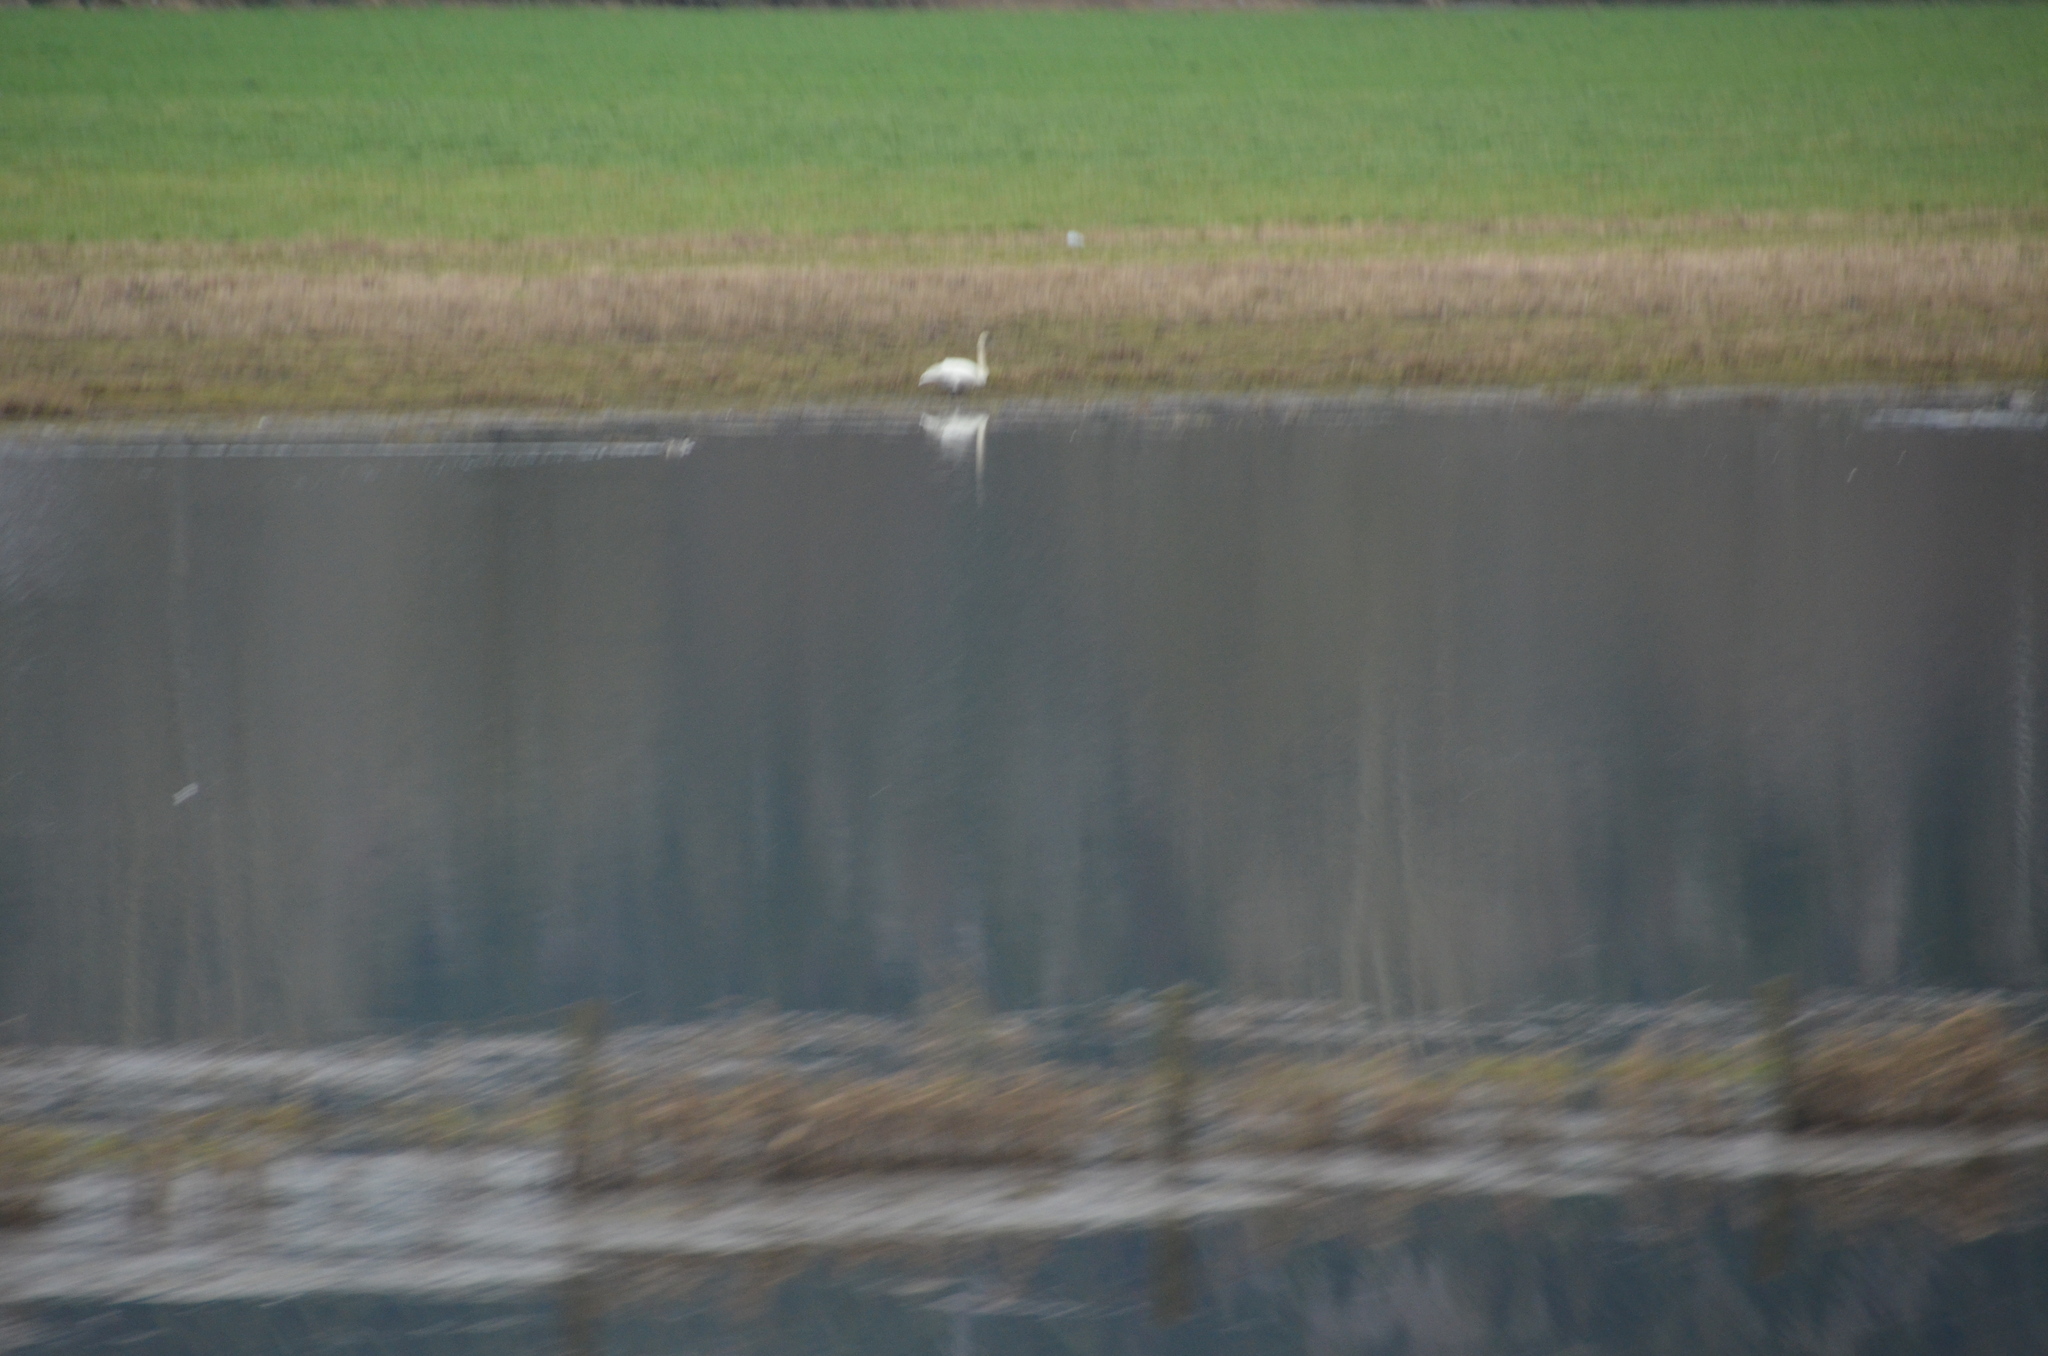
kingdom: Animalia
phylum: Chordata
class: Aves
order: Anseriformes
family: Anatidae
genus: Cygnus
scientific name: Cygnus buccinator
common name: Trumpeter swan
